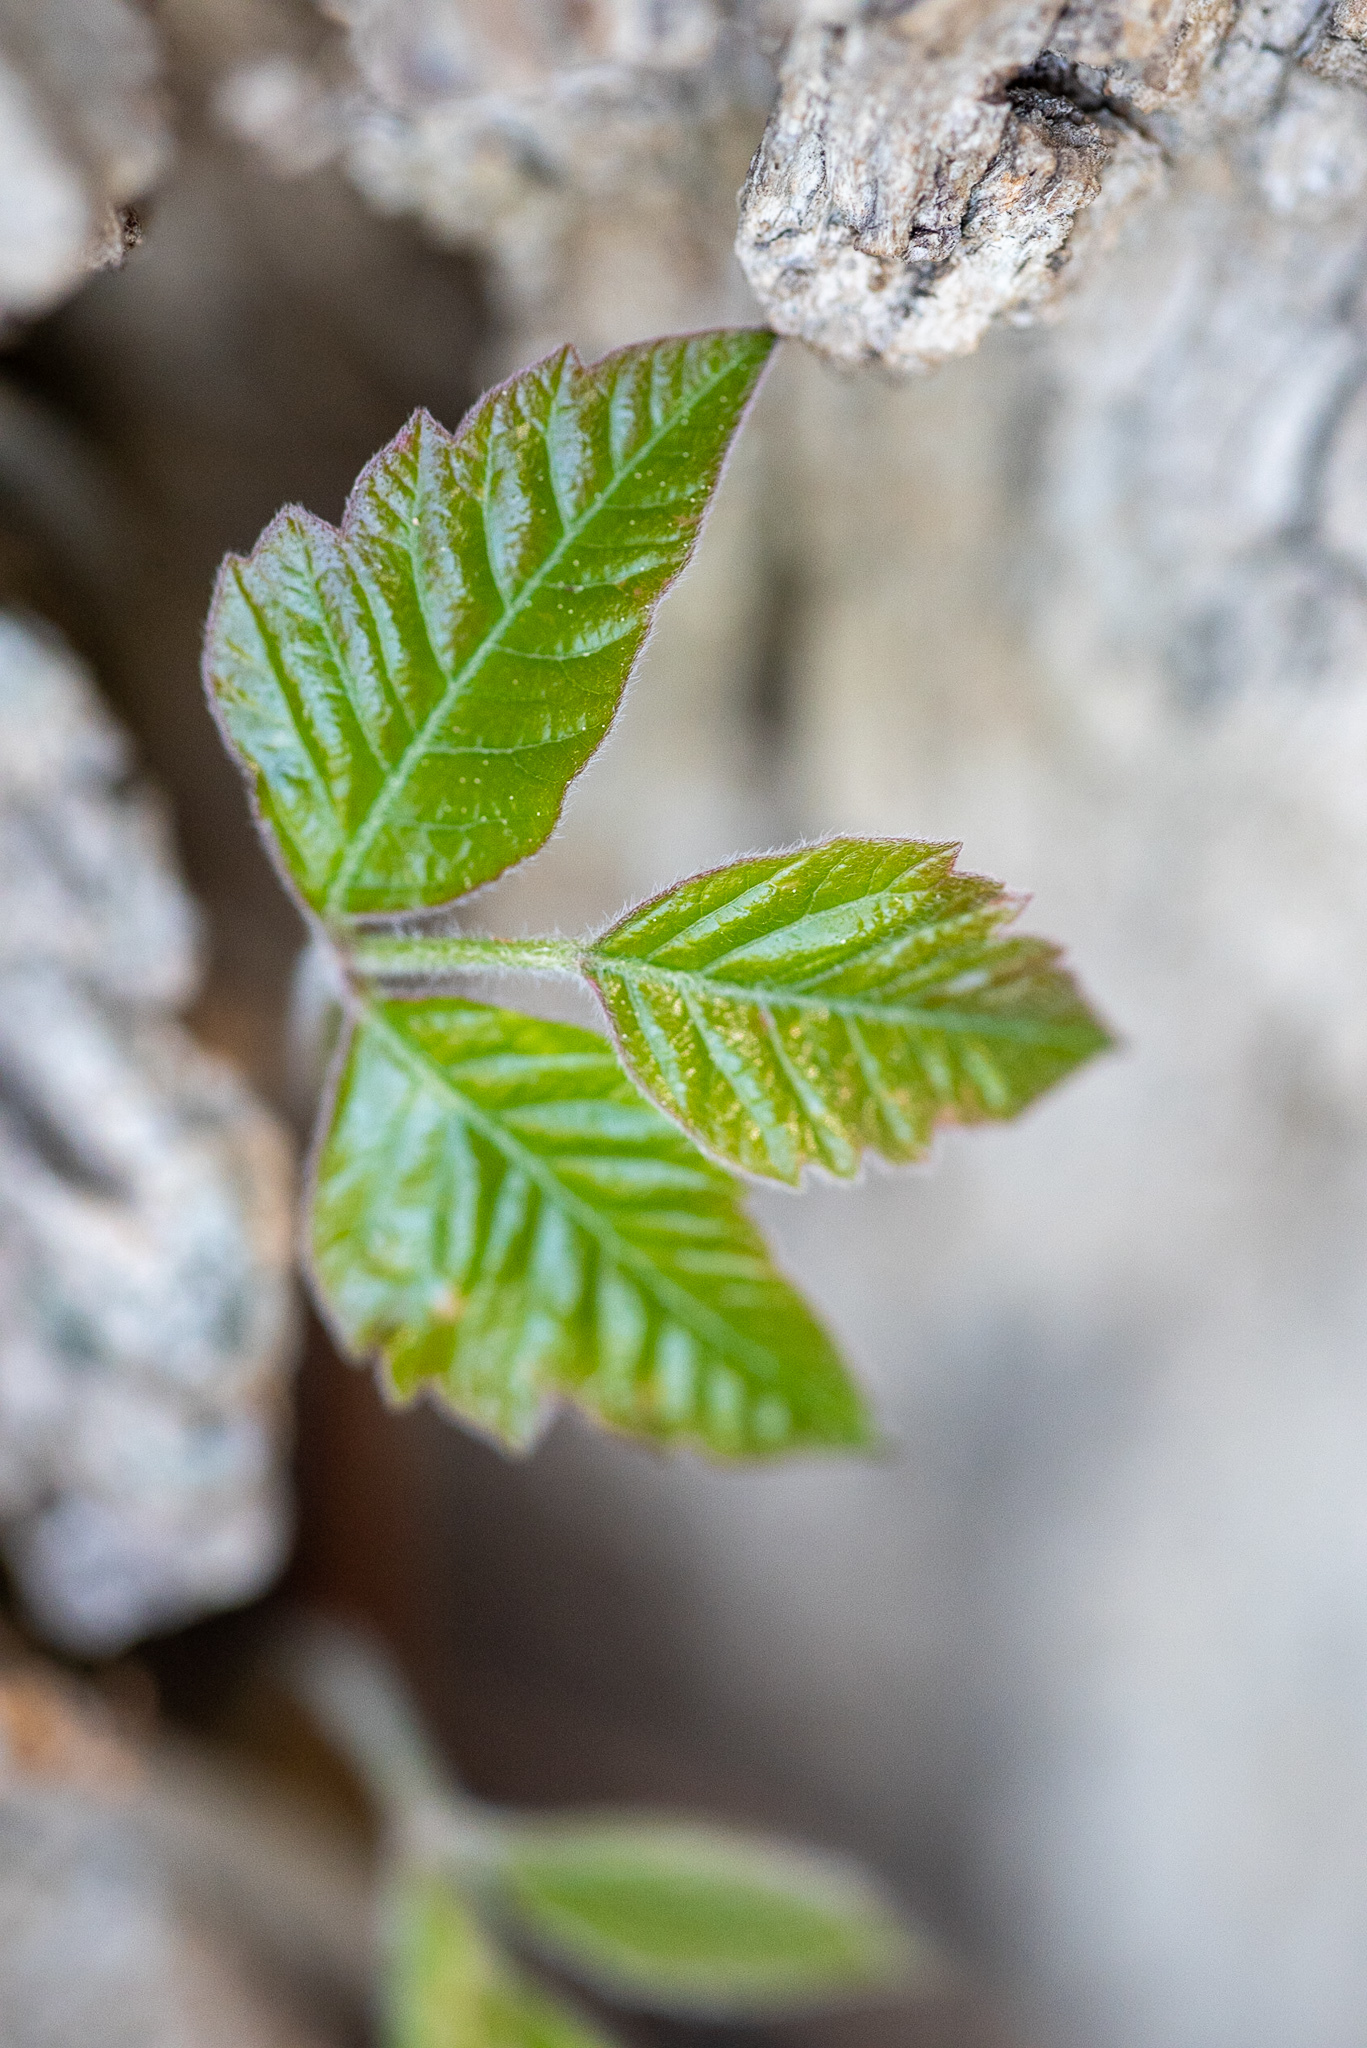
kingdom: Plantae
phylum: Tracheophyta
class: Magnoliopsida
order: Sapindales
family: Anacardiaceae
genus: Toxicodendron
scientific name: Toxicodendron radicans
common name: Poison ivy
